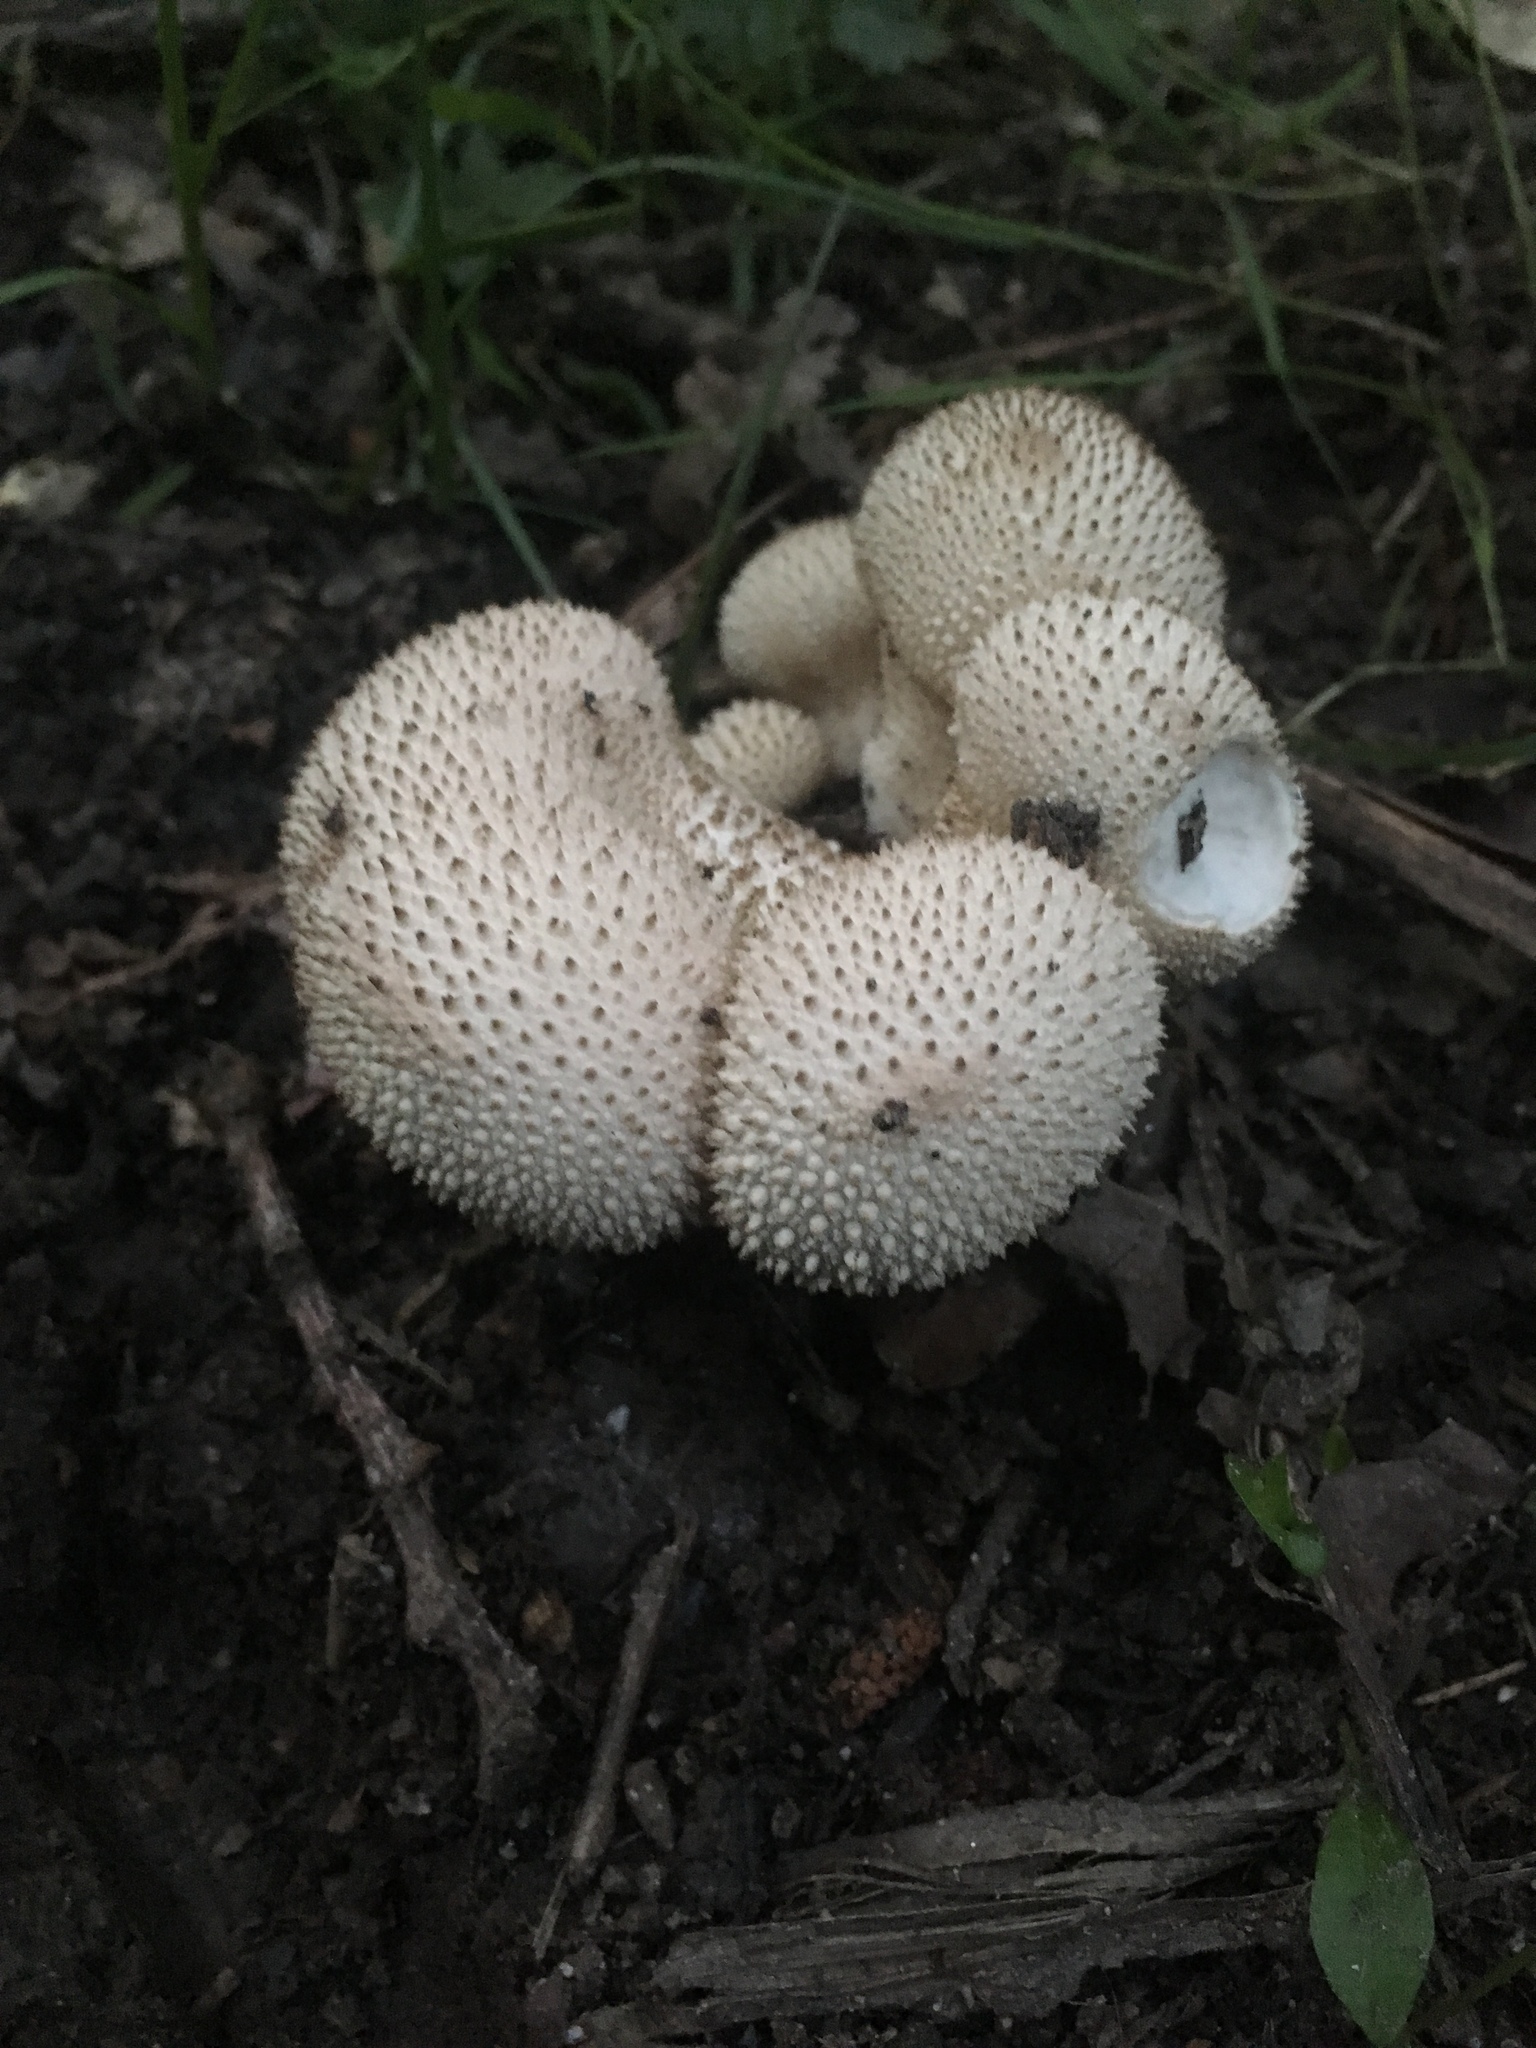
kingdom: Fungi
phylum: Basidiomycota
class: Agaricomycetes
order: Agaricales
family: Lycoperdaceae
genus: Lycoperdon
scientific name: Lycoperdon perlatum
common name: Common puffball
